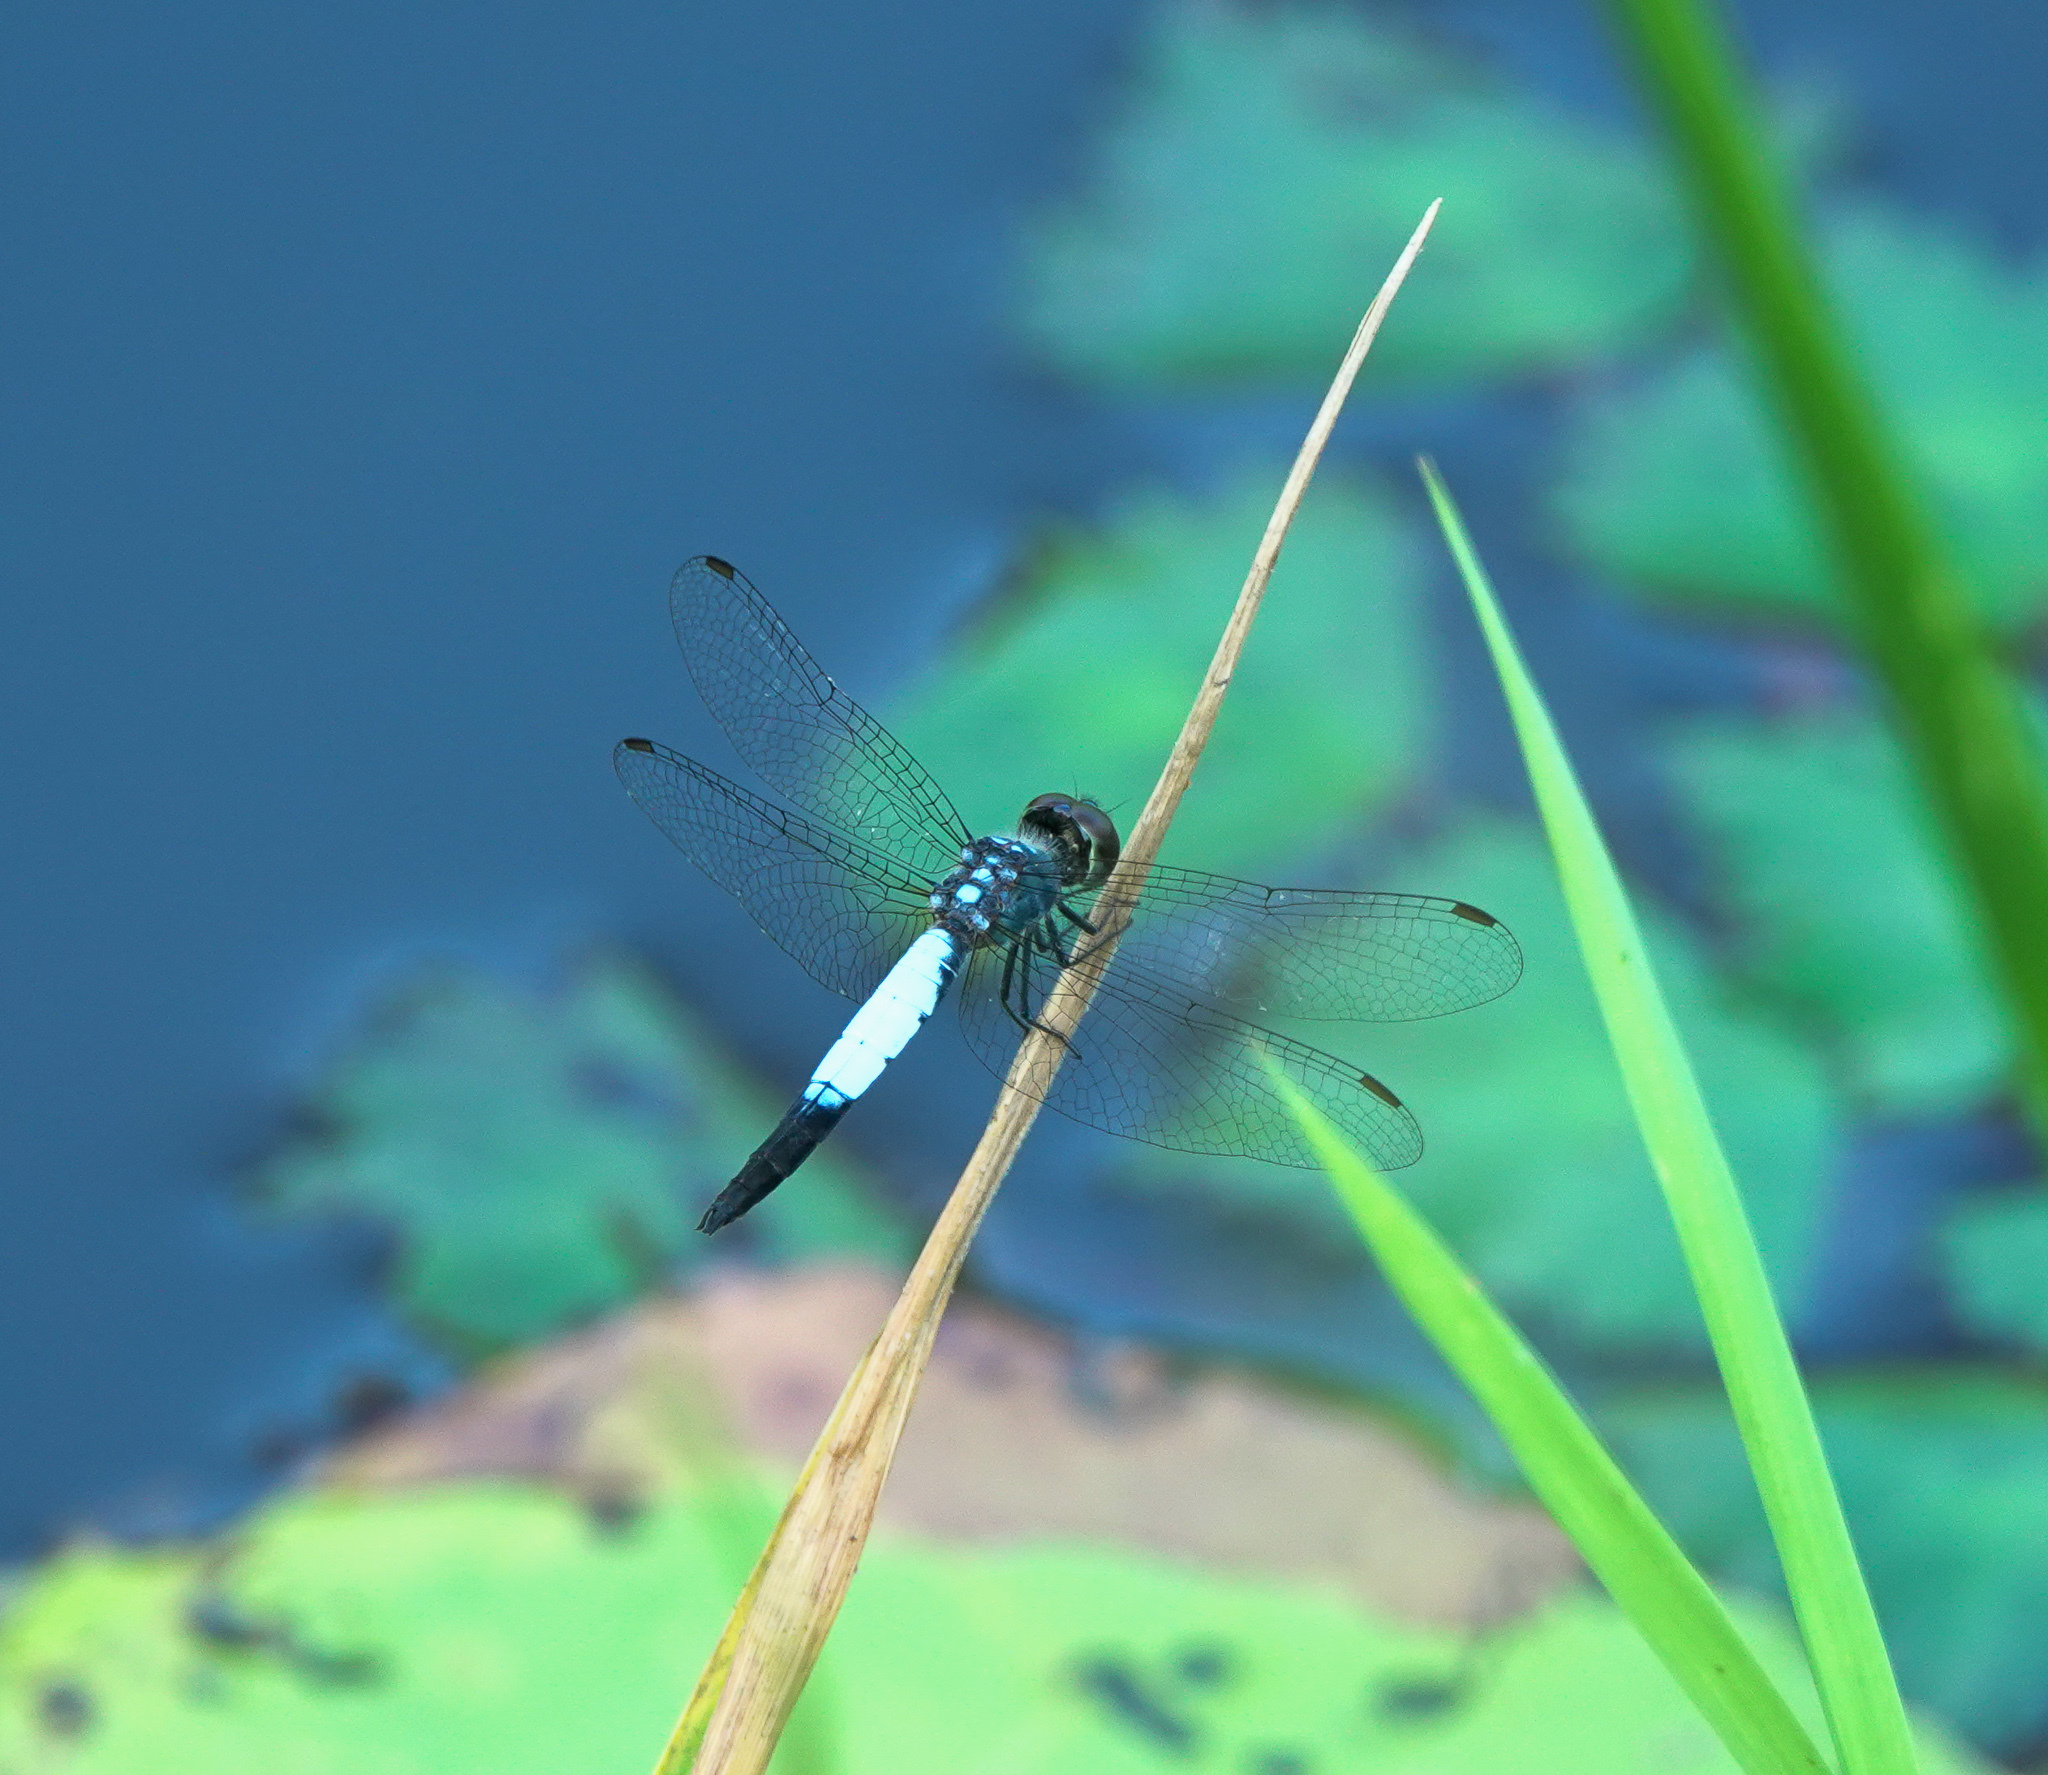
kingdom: Animalia
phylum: Arthropoda
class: Insecta
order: Odonata
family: Libellulidae
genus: Brachydiplax
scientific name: Brachydiplax farinosa
